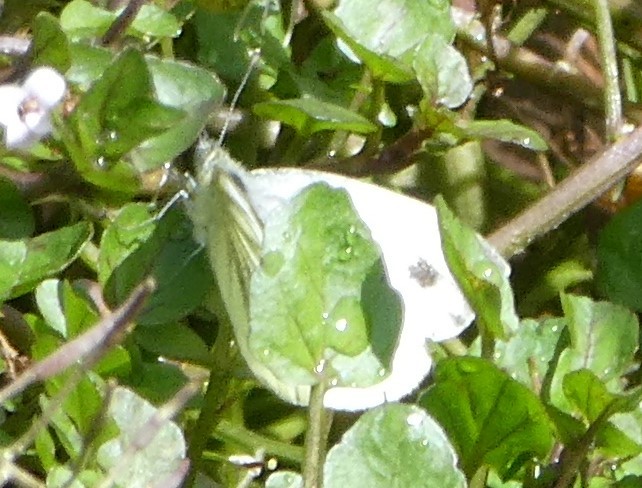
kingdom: Animalia
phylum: Arthropoda
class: Insecta
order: Lepidoptera
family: Pieridae
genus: Pieris
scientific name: Pieris napi
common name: Green-veined white
